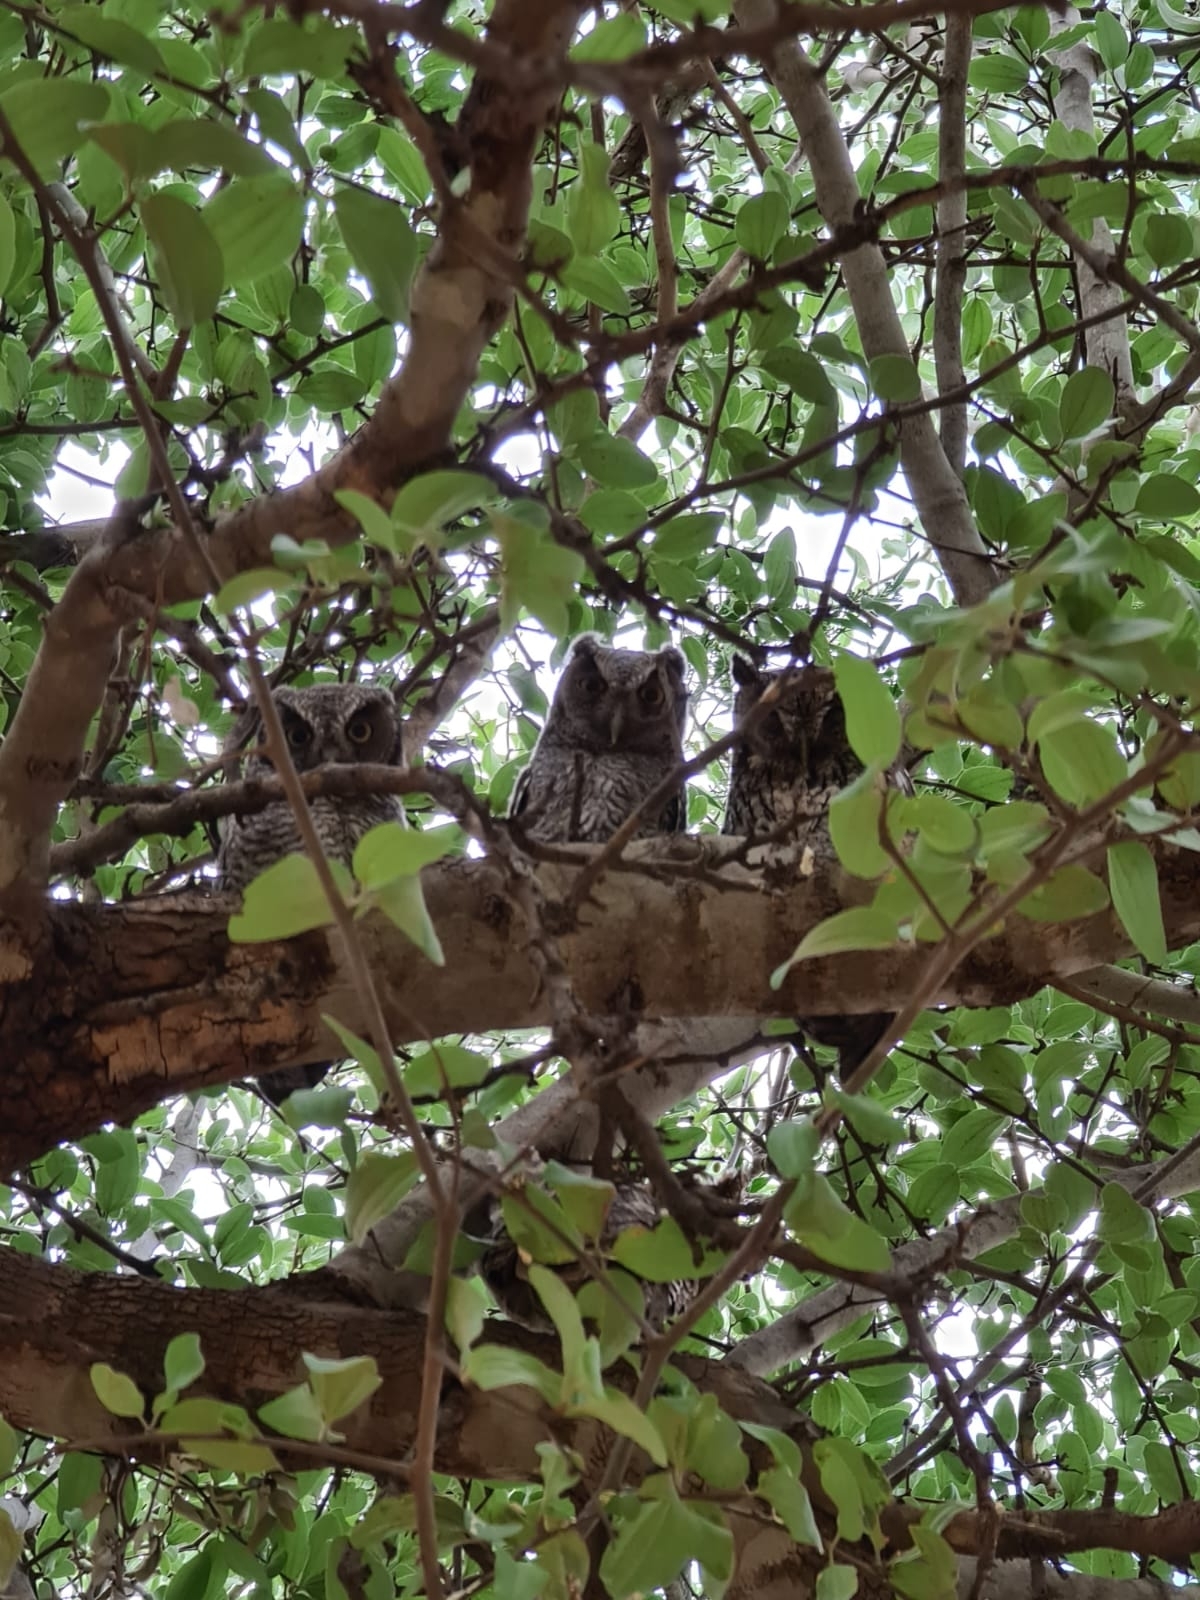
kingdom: Animalia
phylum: Chordata
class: Aves
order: Strigiformes
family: Strigidae
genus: Megascops
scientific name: Megascops choliba
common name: Tropical screech-owl
